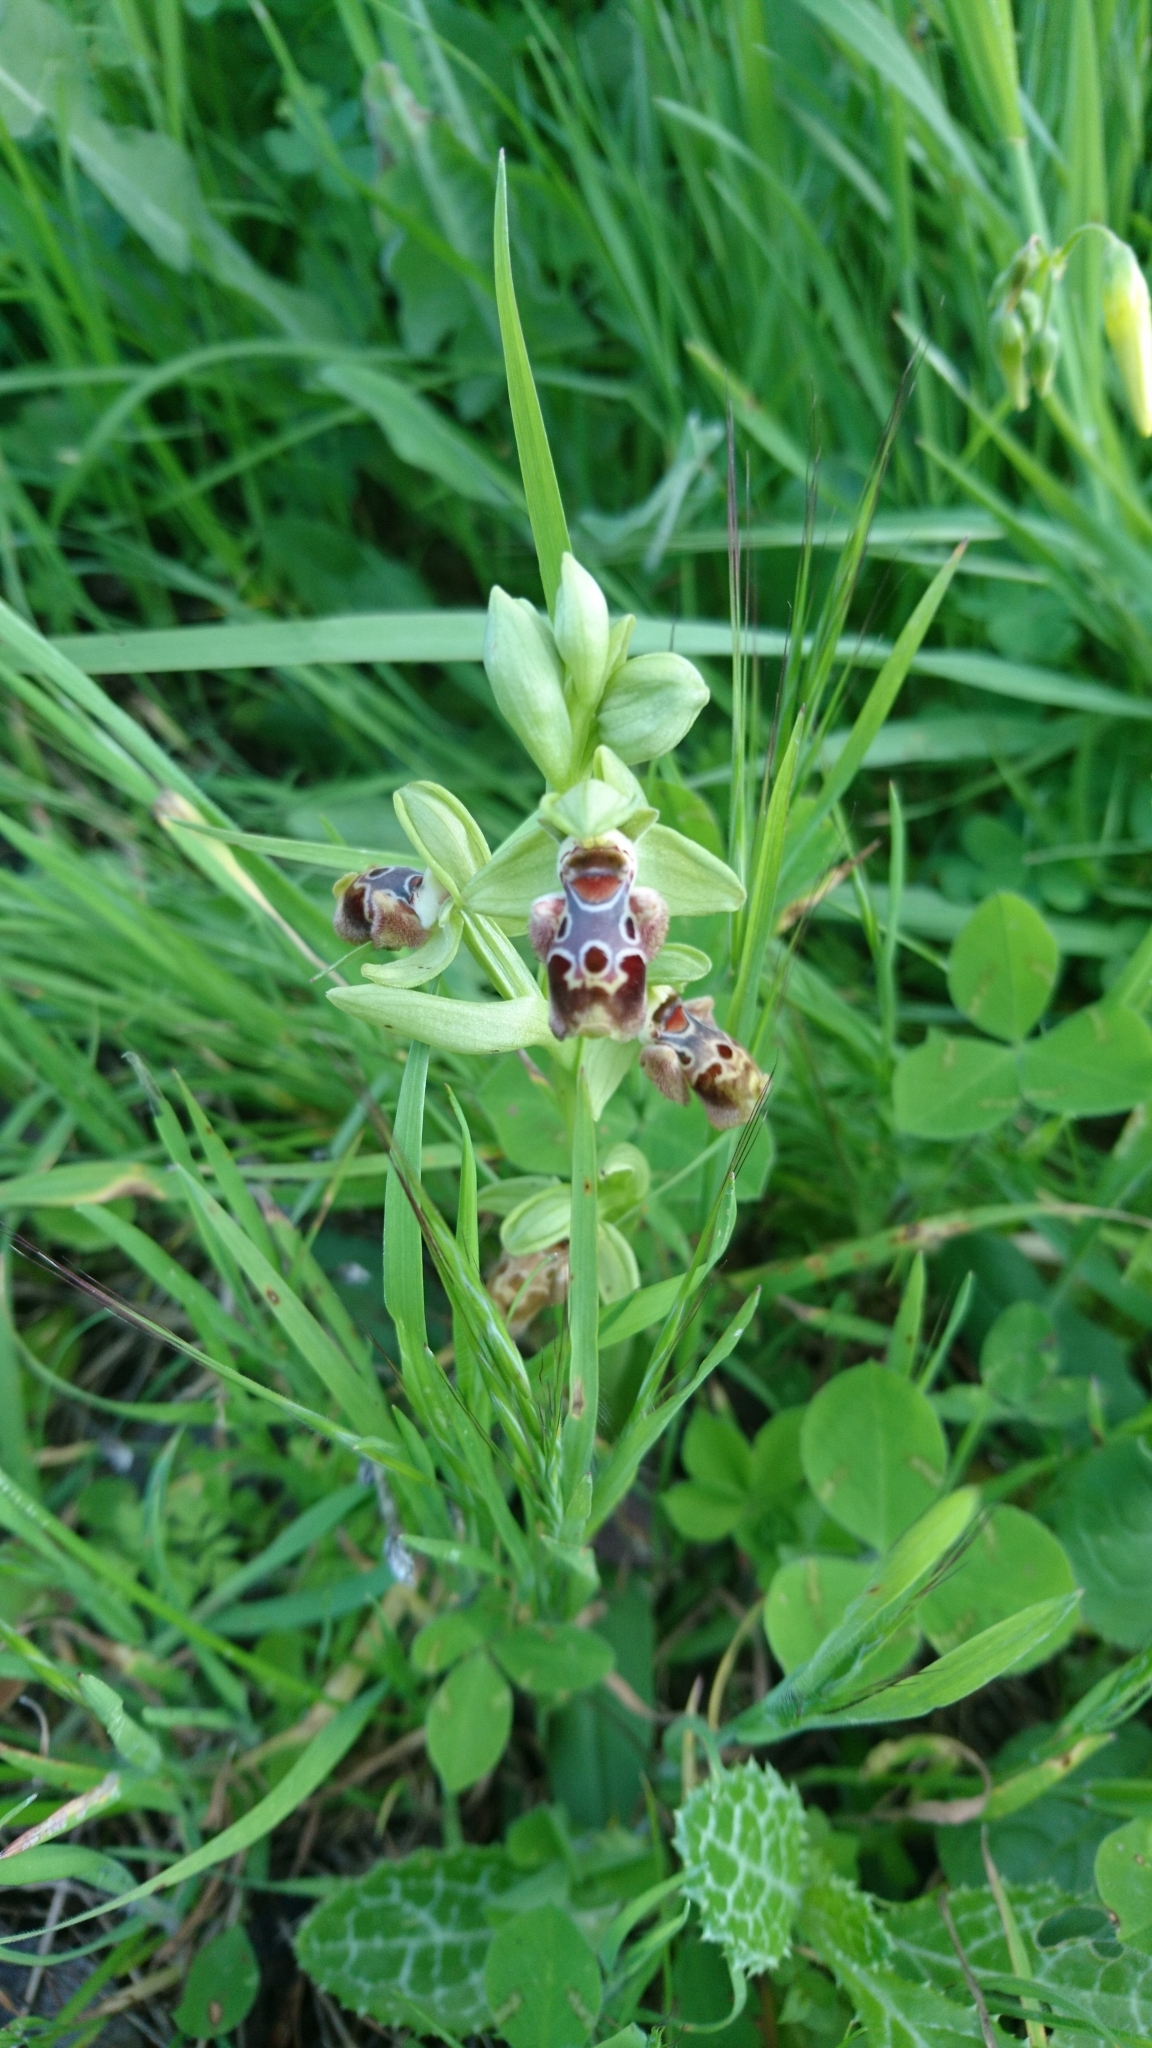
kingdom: Plantae
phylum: Tracheophyta
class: Liliopsida
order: Asparagales
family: Orchidaceae
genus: Ophrys
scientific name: Ophrys umbilicata
